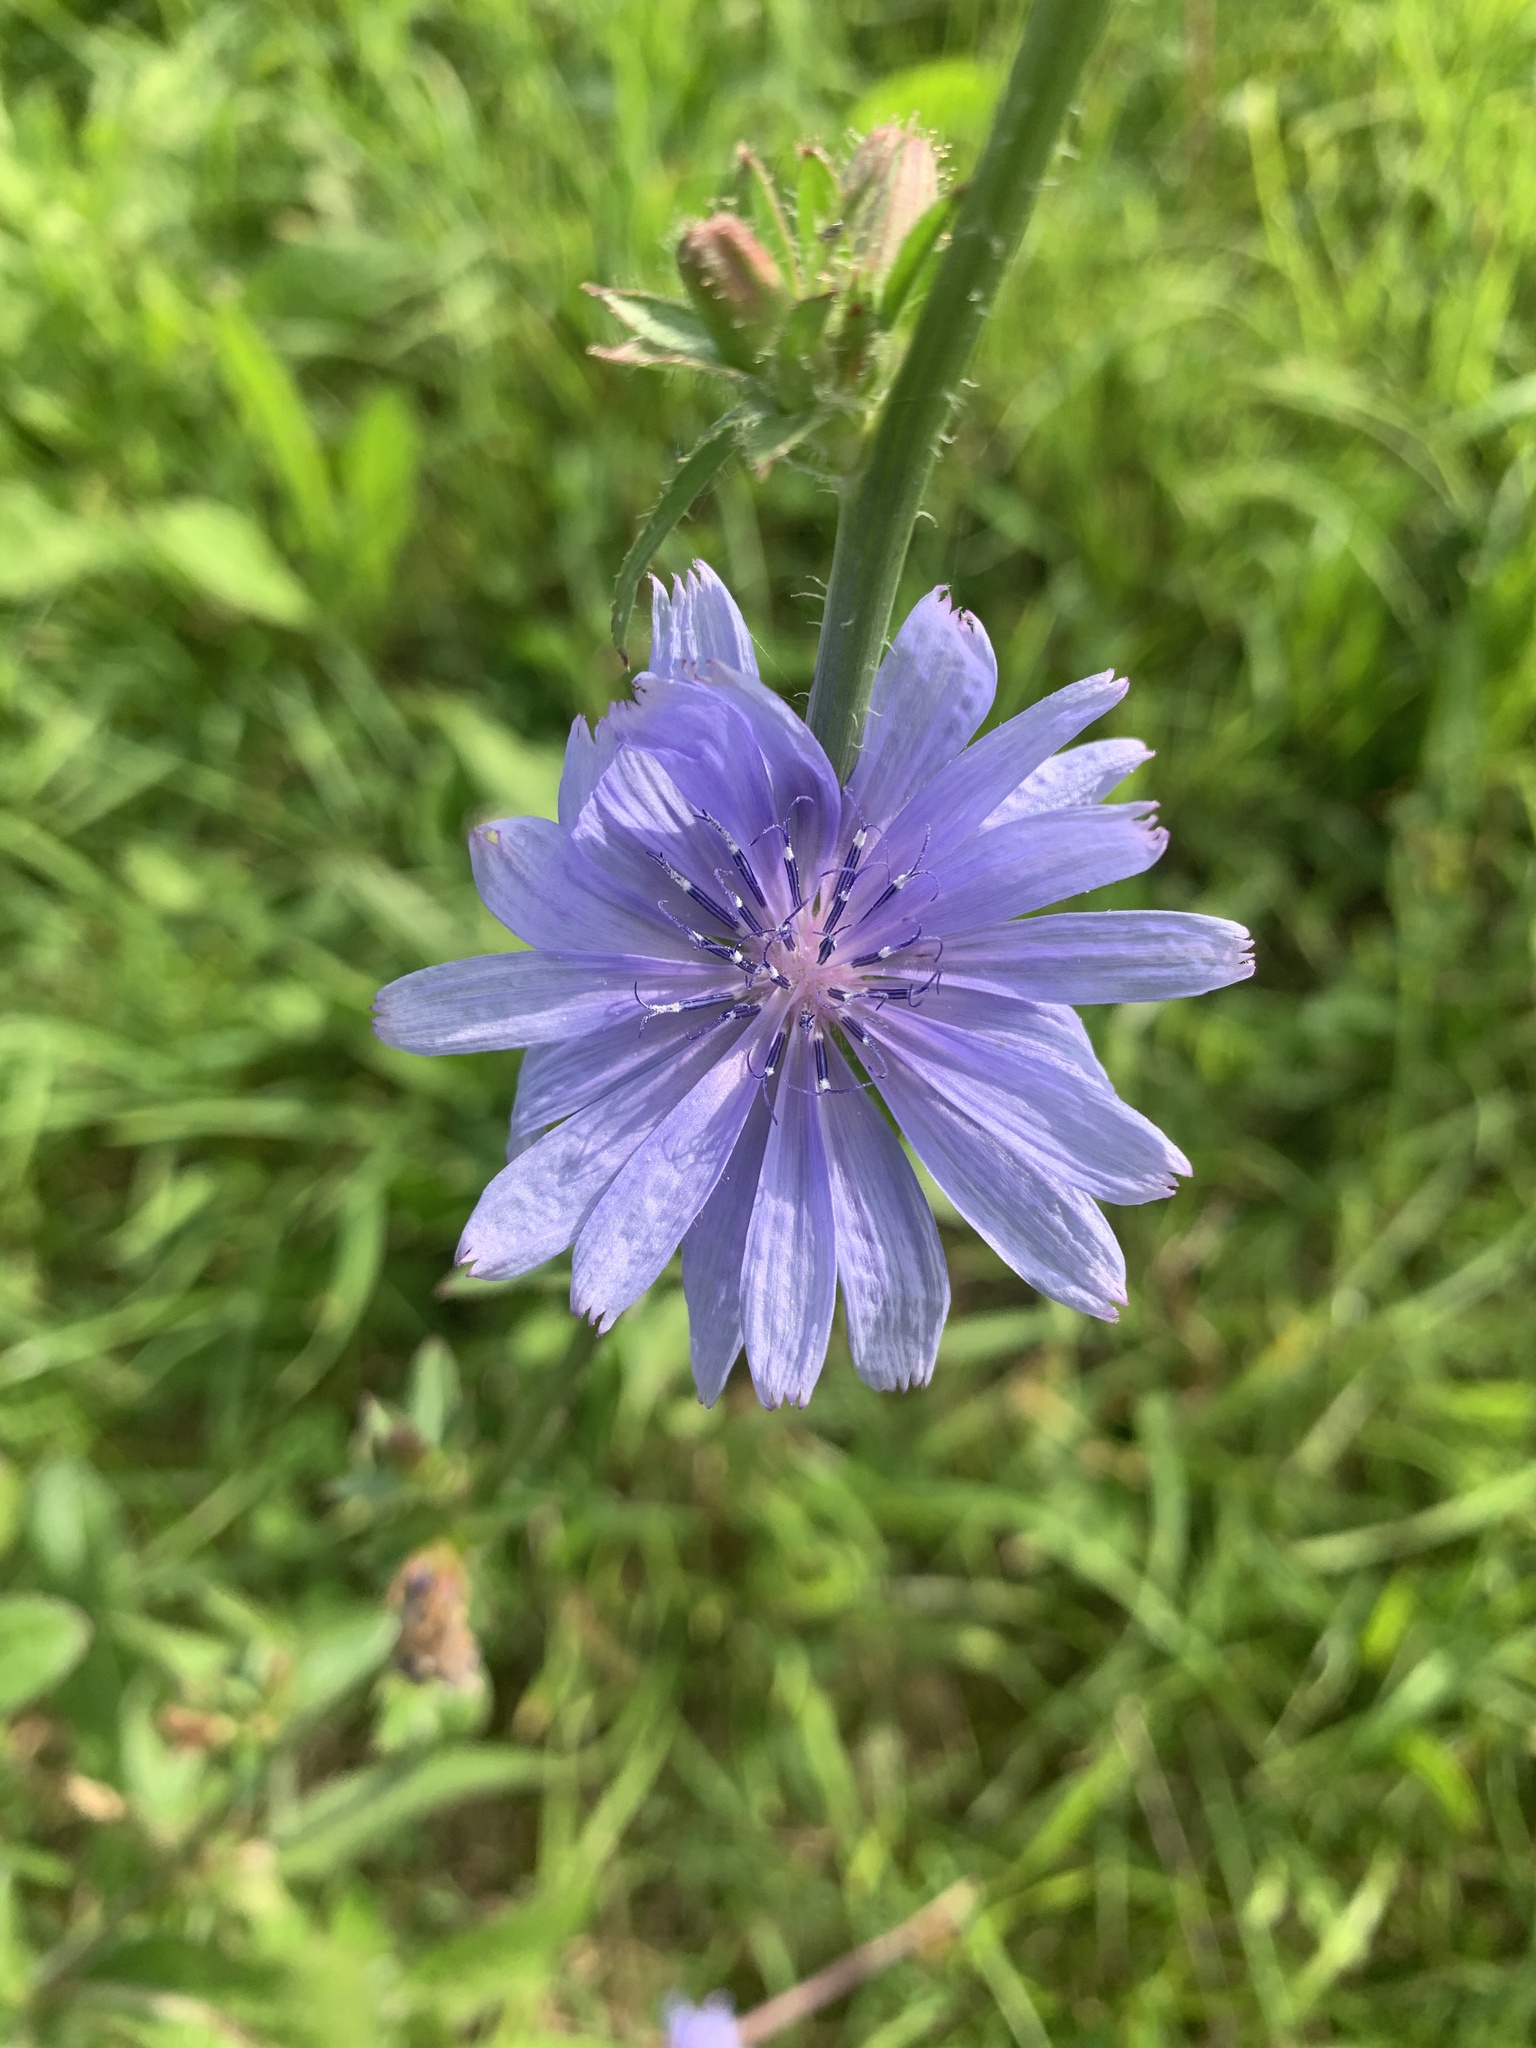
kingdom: Plantae
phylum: Tracheophyta
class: Magnoliopsida
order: Asterales
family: Asteraceae
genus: Cichorium
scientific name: Cichorium intybus
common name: Chicory
